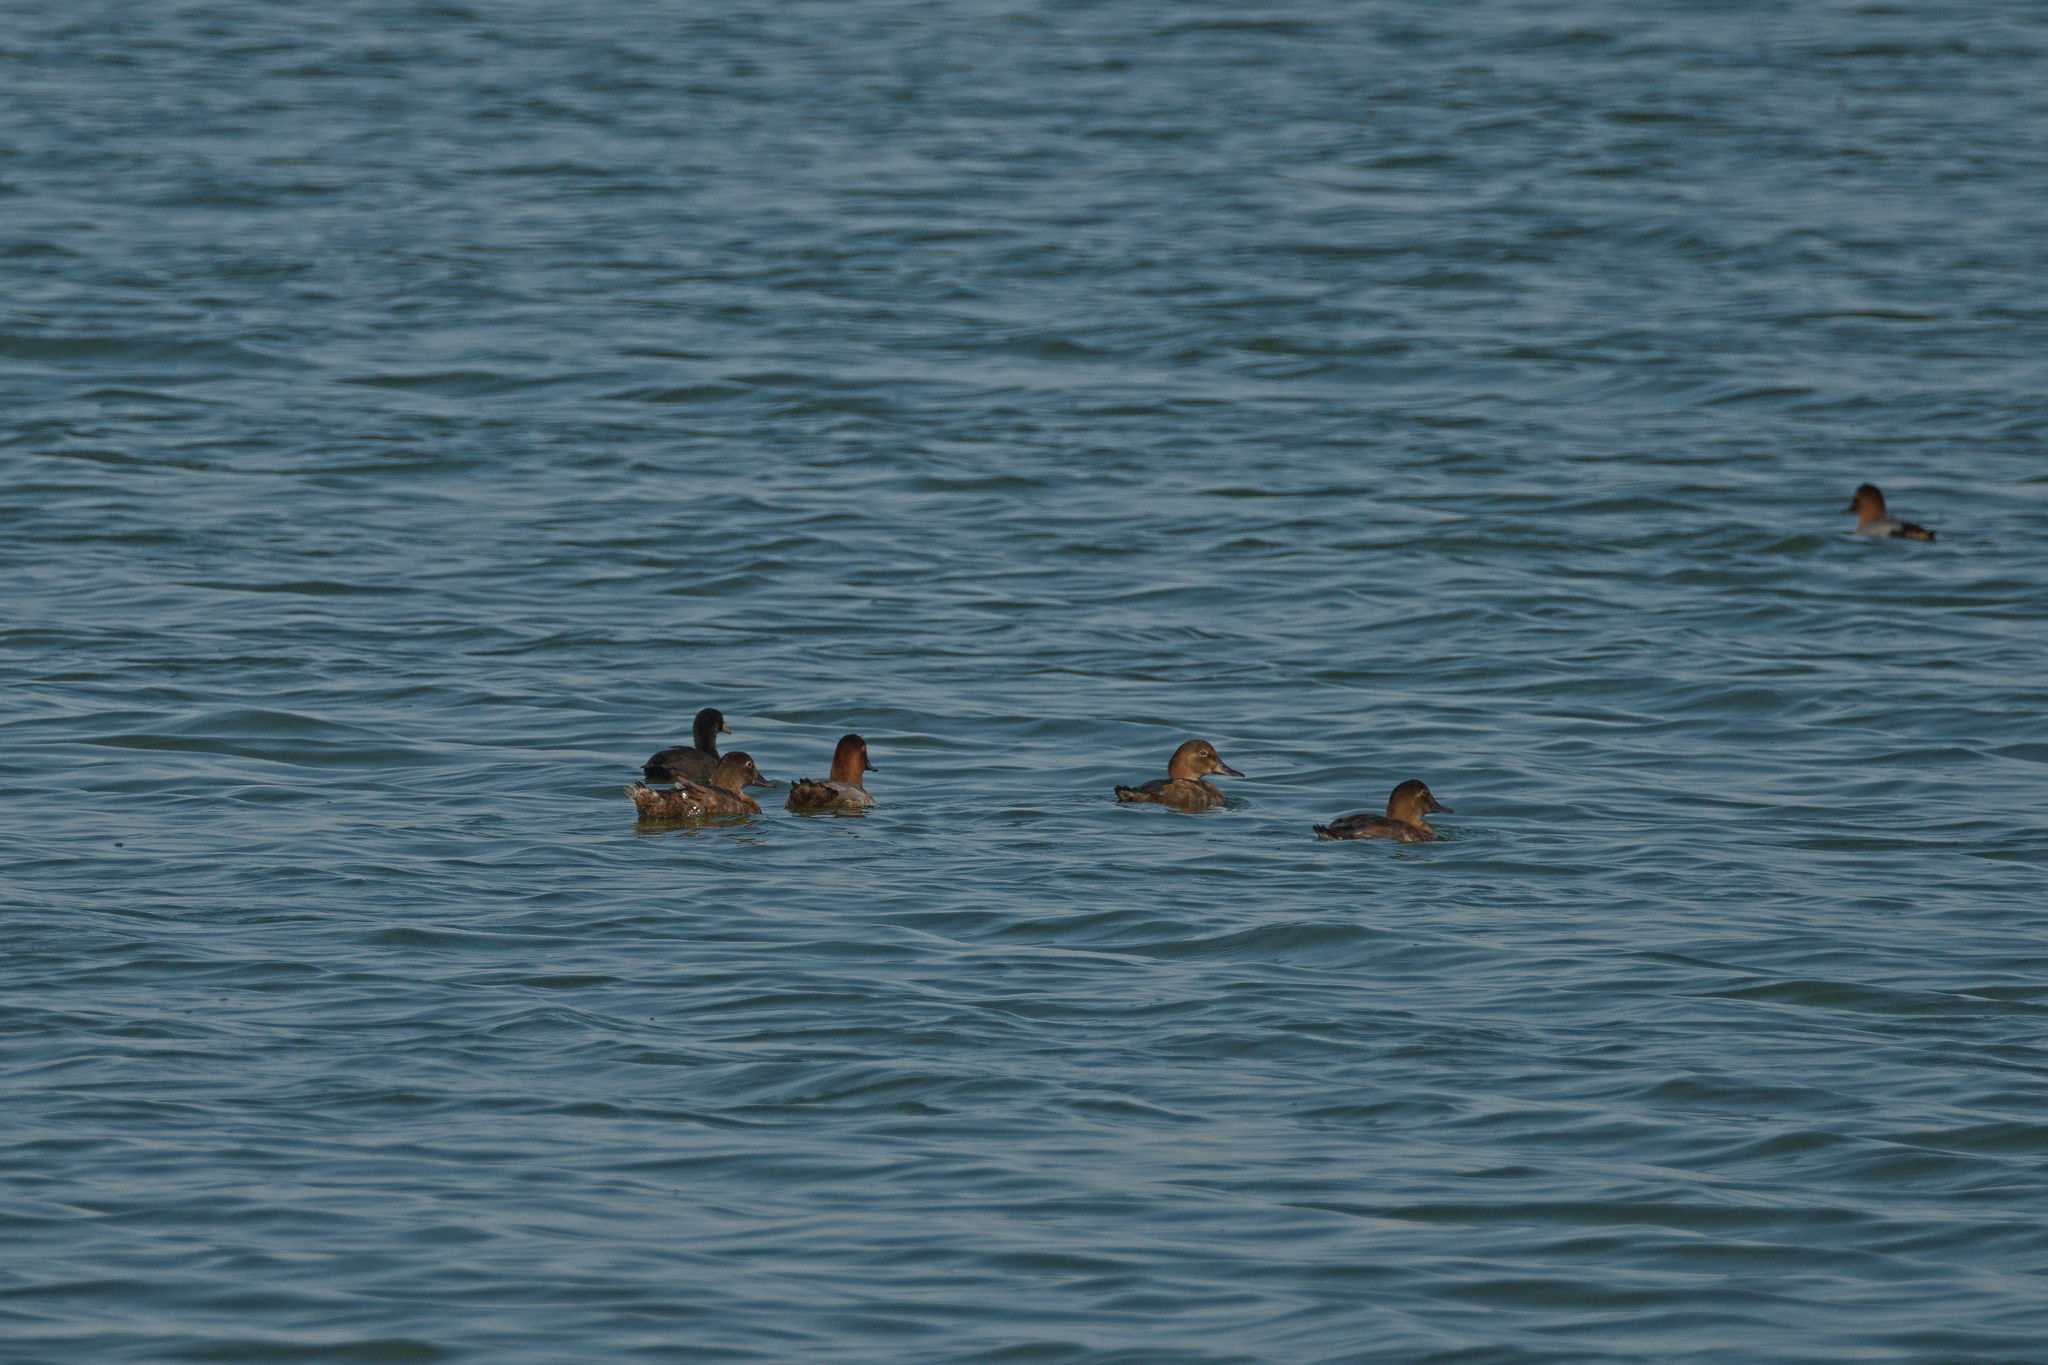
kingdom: Animalia
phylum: Chordata
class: Aves
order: Anseriformes
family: Anatidae
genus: Aythya
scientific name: Aythya ferina
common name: Common pochard
